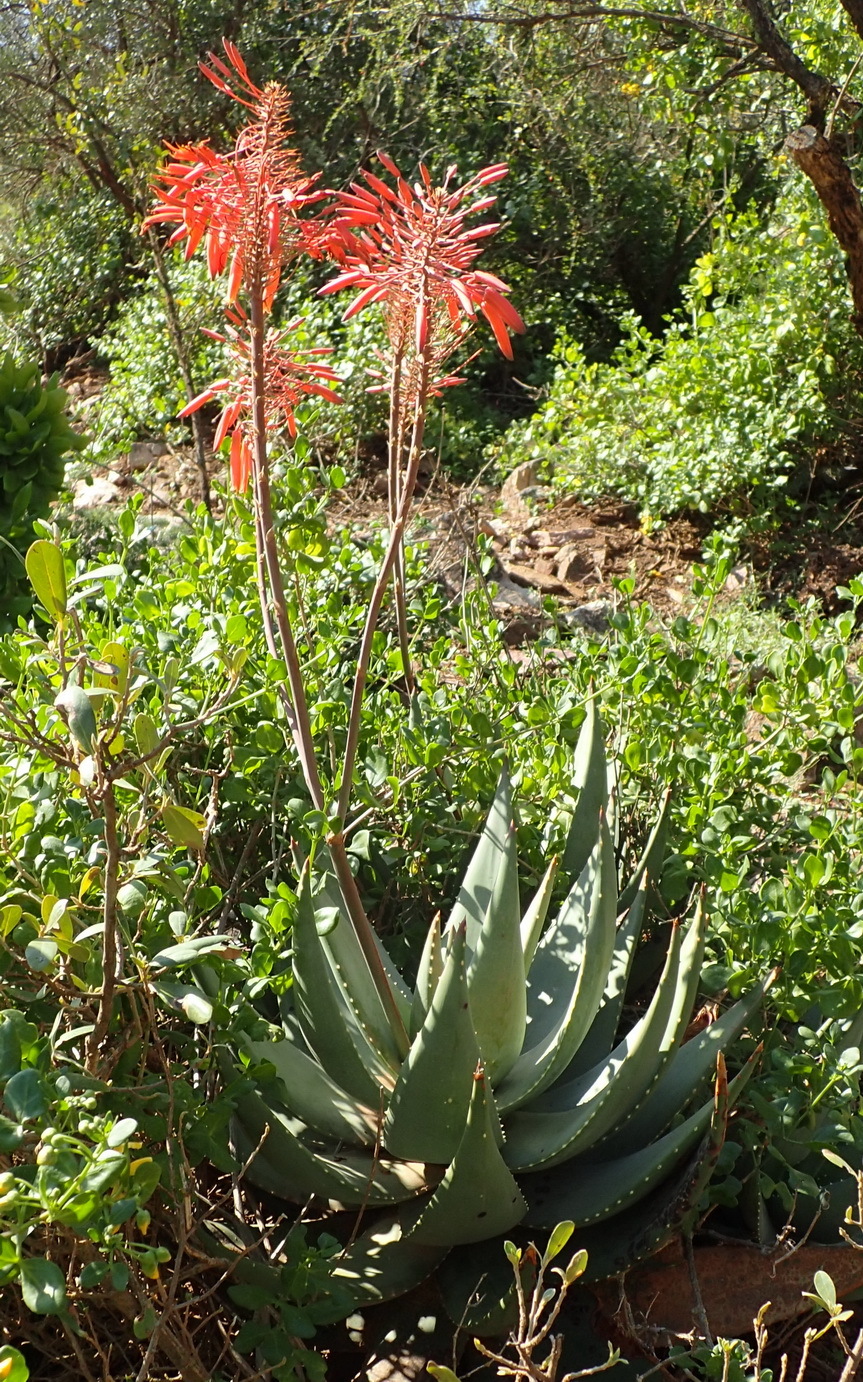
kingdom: Plantae
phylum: Tracheophyta
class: Liliopsida
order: Asparagales
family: Asphodelaceae
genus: Aloe
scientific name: Aloe comptonii
